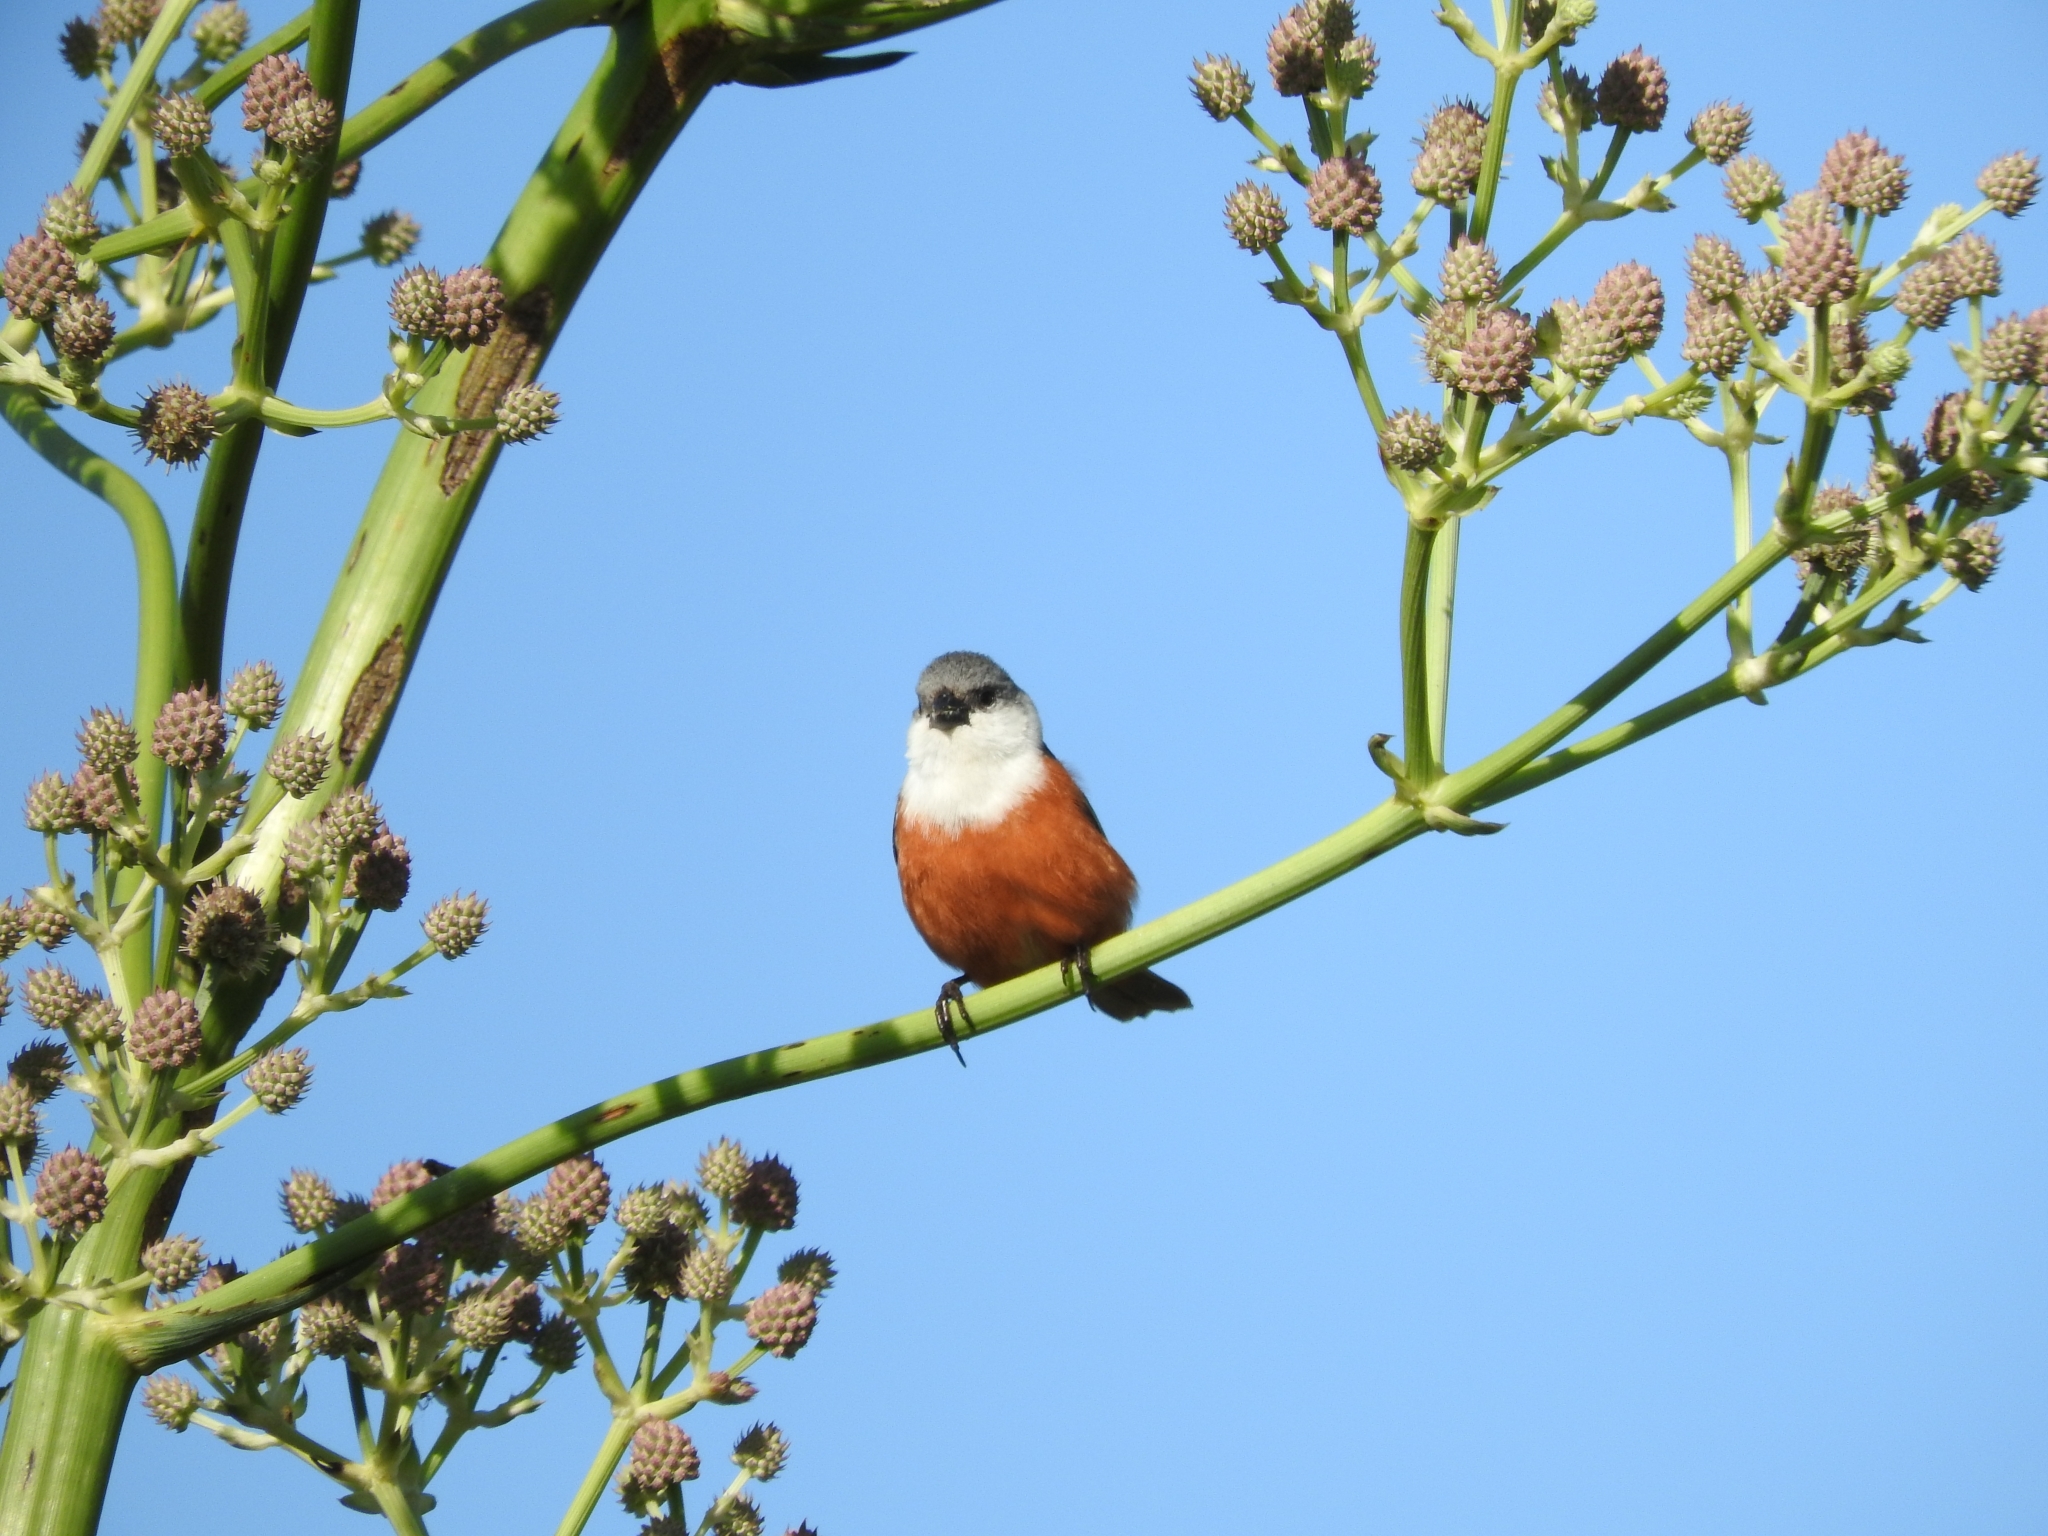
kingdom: Animalia
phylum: Chordata
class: Aves
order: Passeriformes
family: Thraupidae
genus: Sporophila
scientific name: Sporophila palustris
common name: Marsh seedeater
